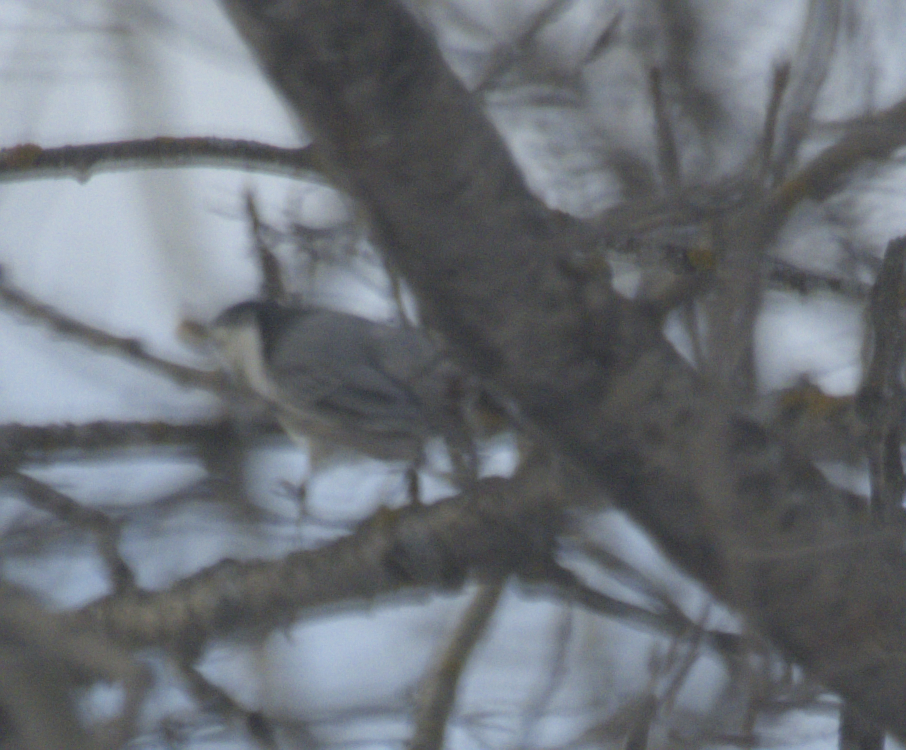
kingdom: Animalia
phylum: Chordata
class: Aves
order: Passeriformes
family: Sittidae
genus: Sitta
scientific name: Sitta carolinensis
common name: White-breasted nuthatch
